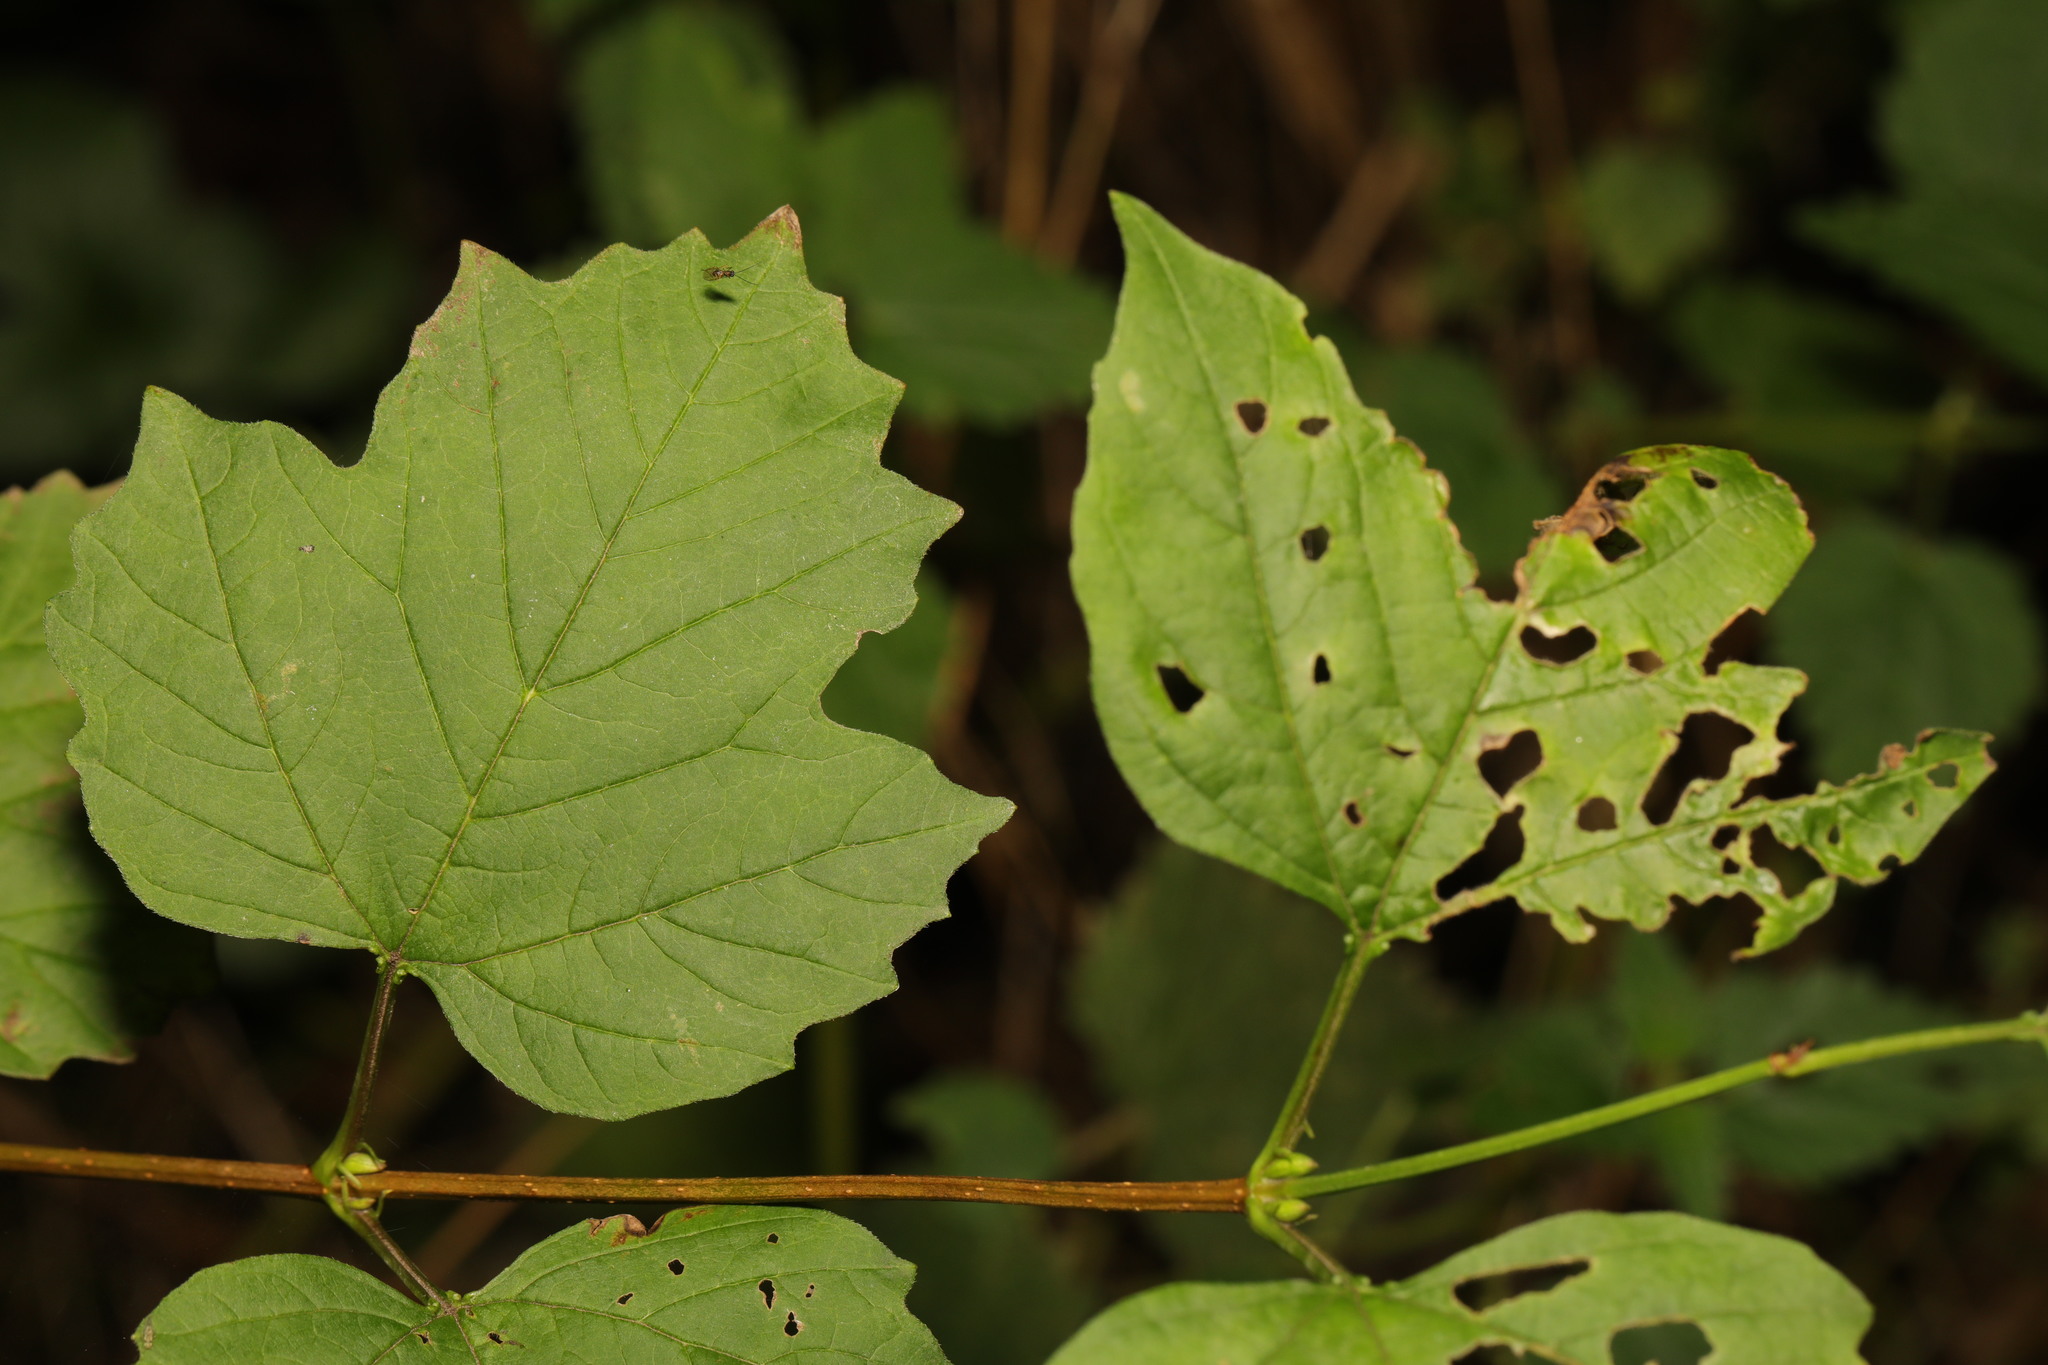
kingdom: Plantae
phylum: Tracheophyta
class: Magnoliopsida
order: Dipsacales
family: Viburnaceae
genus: Viburnum
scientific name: Viburnum opulus
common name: Guelder-rose
